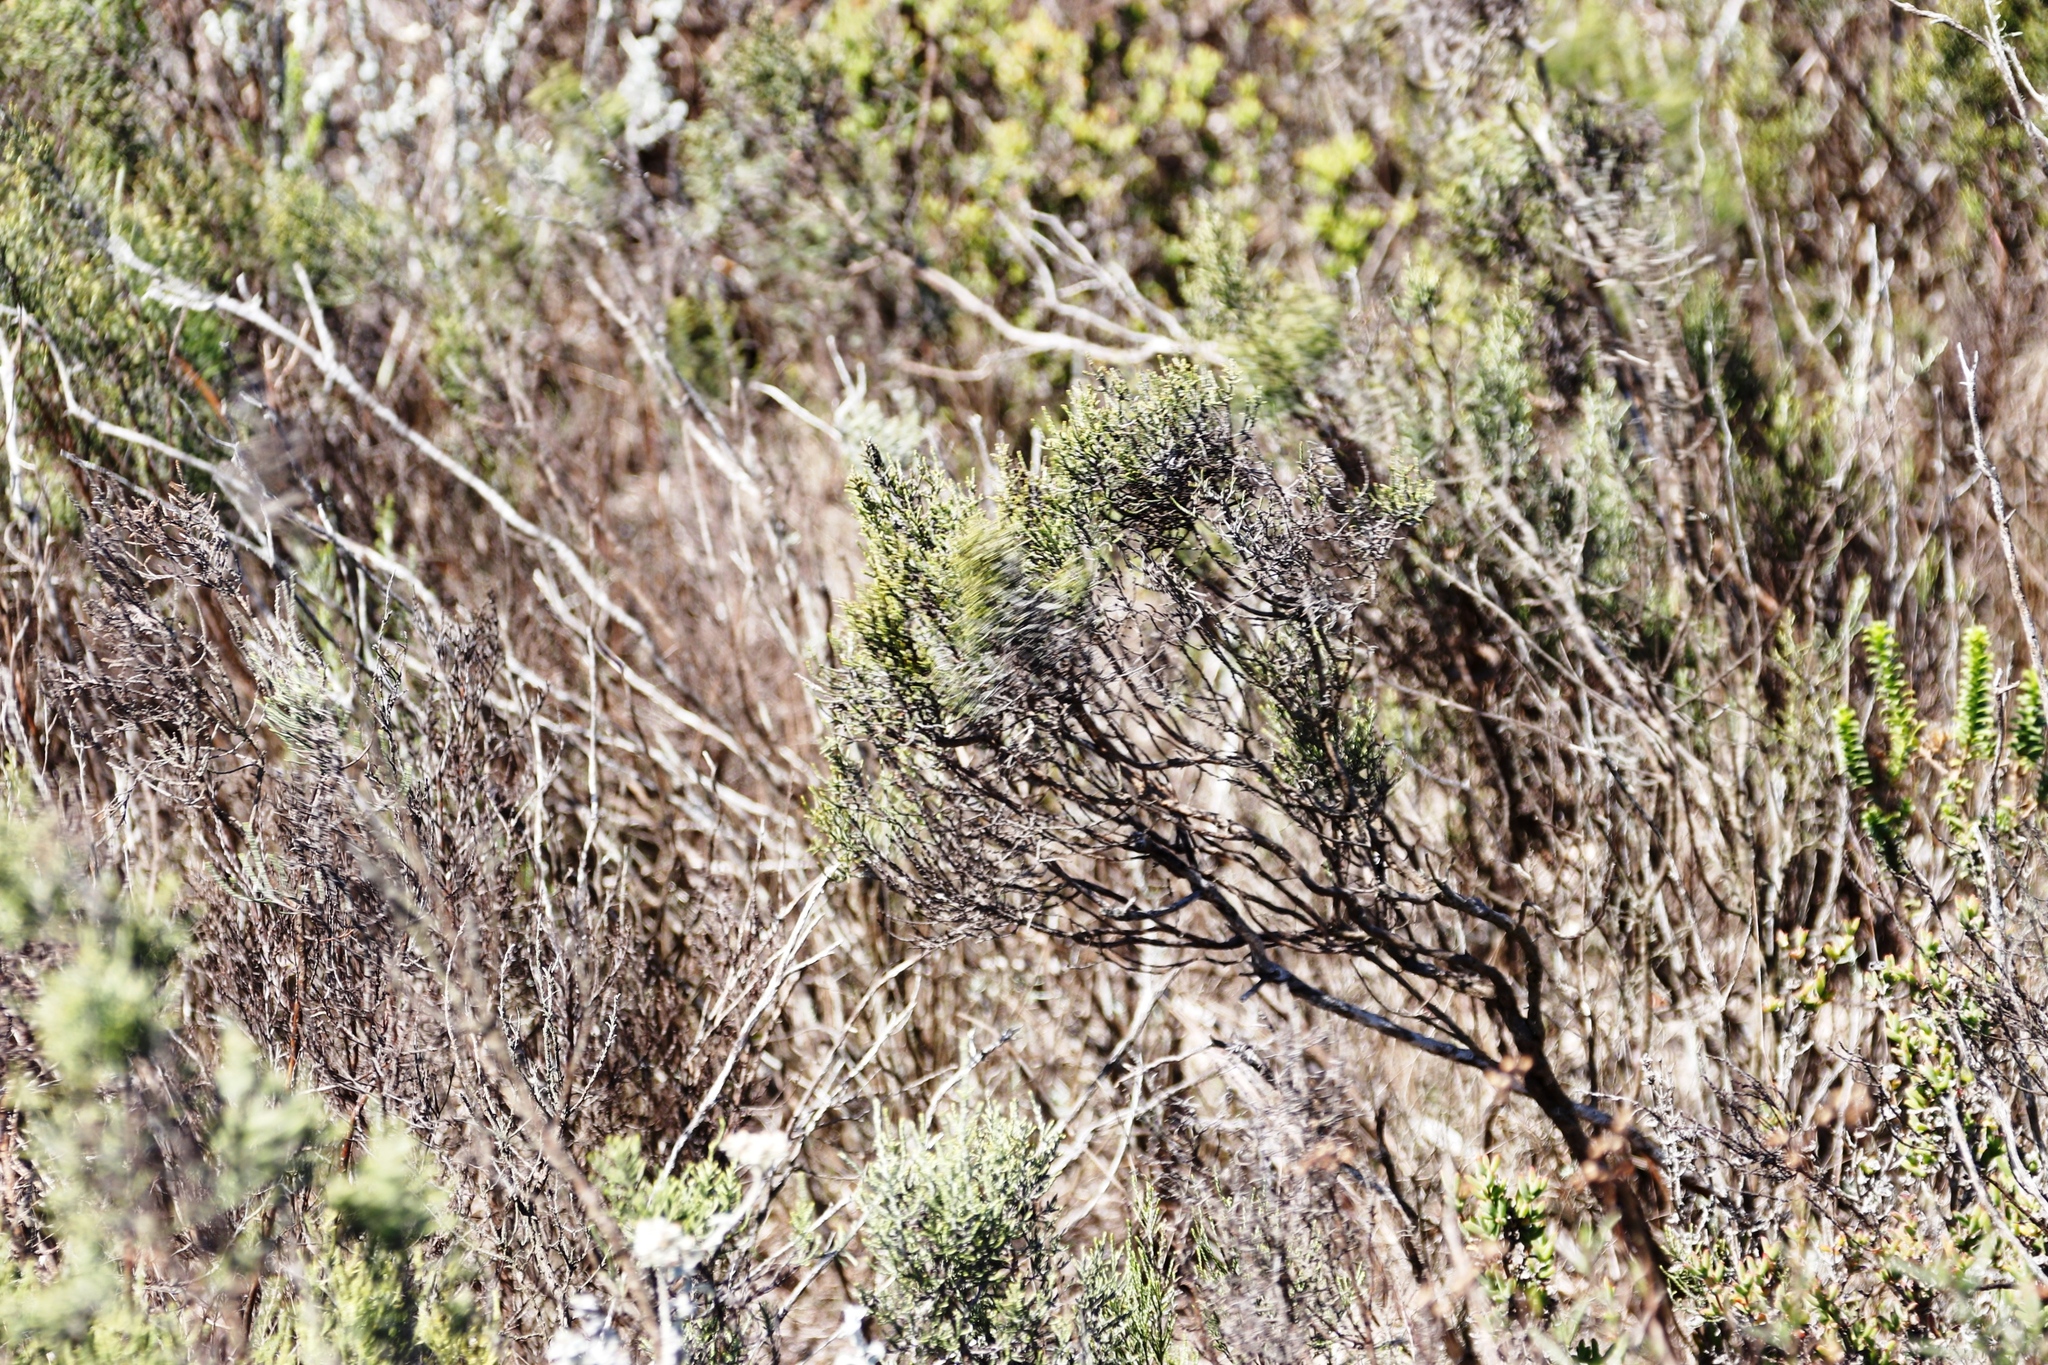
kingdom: Plantae
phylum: Tracheophyta
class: Magnoliopsida
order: Asterales
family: Asteraceae
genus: Dicerothamnus
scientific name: Dicerothamnus rhinocerotis
